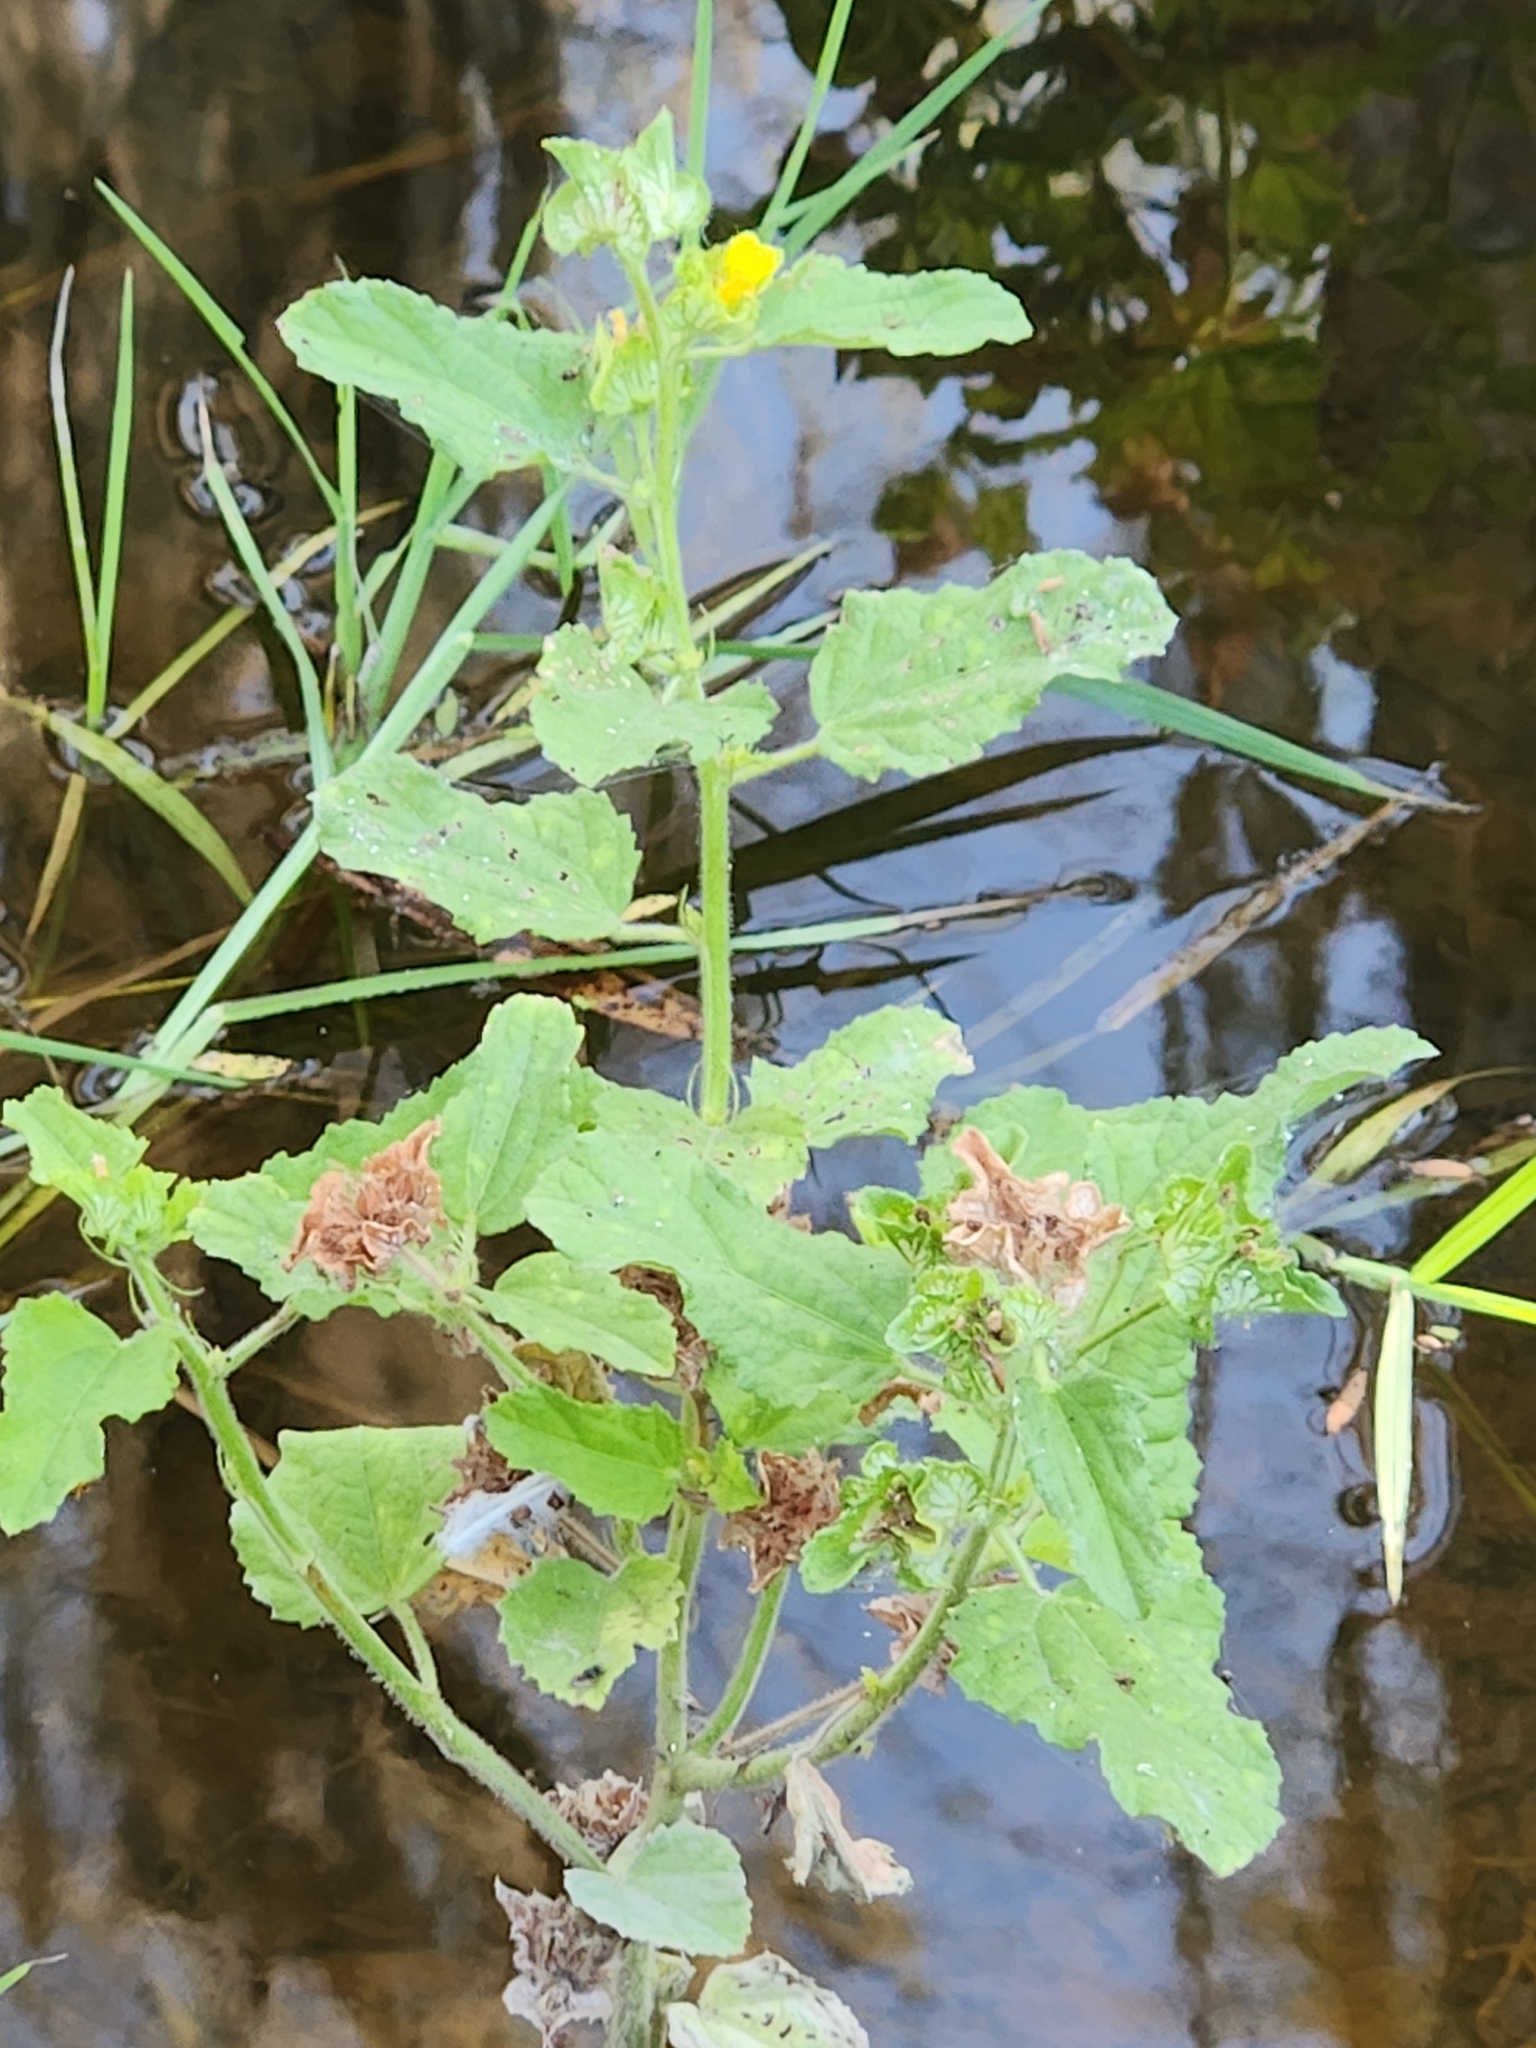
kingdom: Plantae
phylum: Tracheophyta
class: Magnoliopsida
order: Malvales
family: Malvaceae
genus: Malachra
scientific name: Malachra capitata
